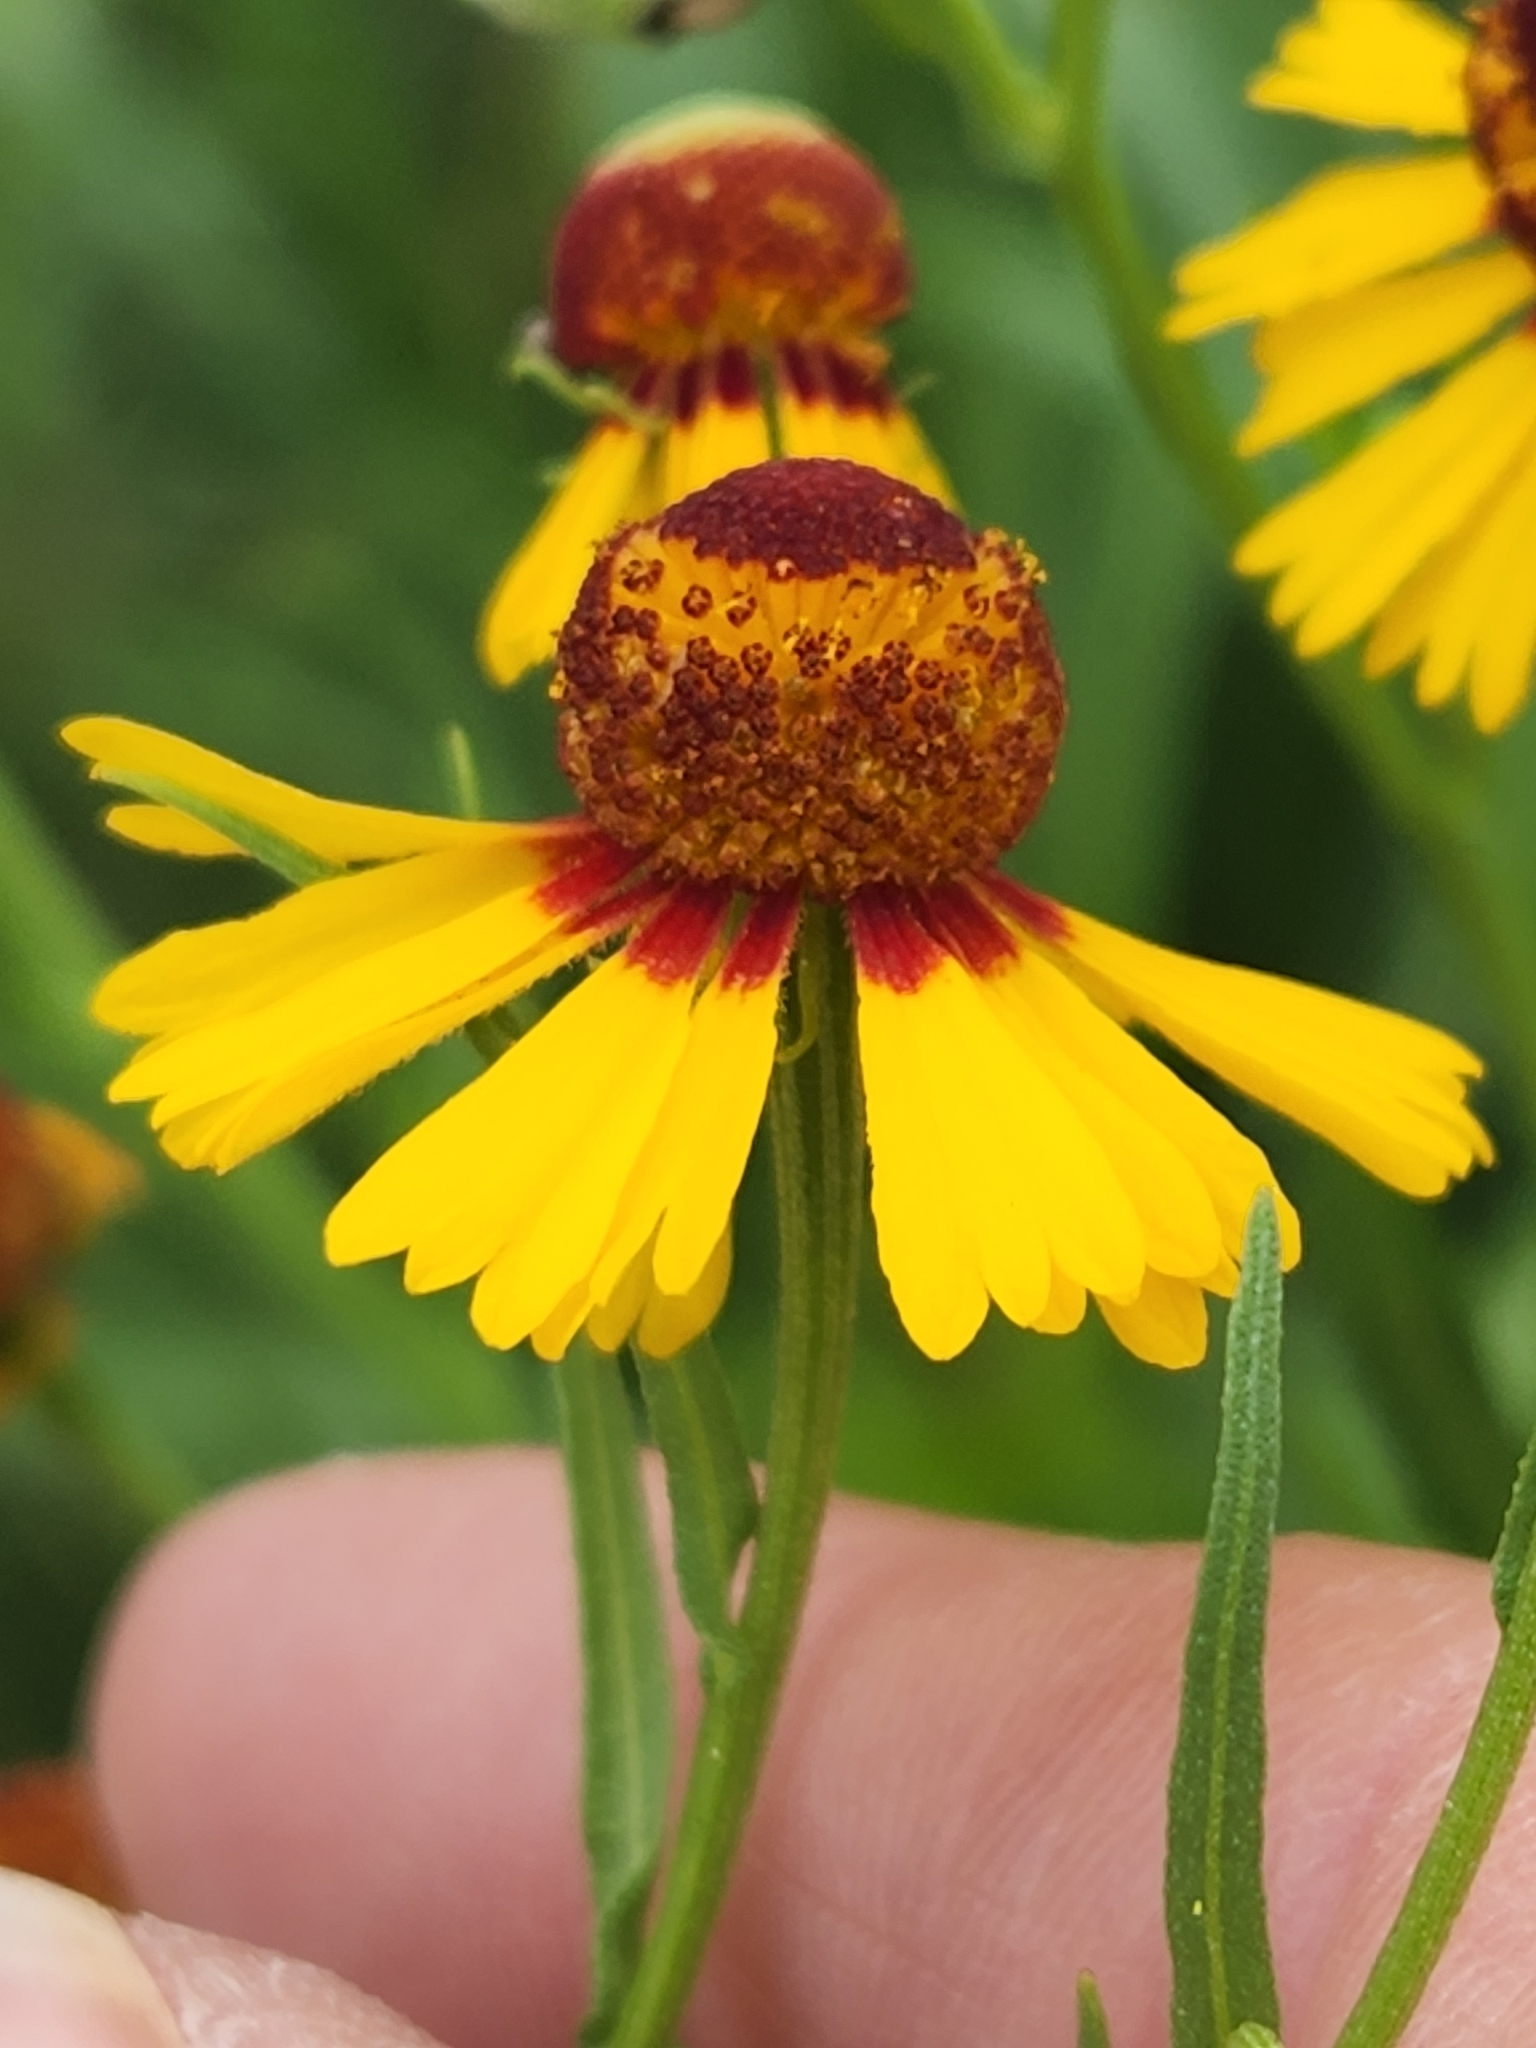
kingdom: Plantae
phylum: Tracheophyta
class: Magnoliopsida
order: Asterales
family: Asteraceae
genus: Helenium
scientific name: Helenium elegans
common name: Pretty sneezeweed
